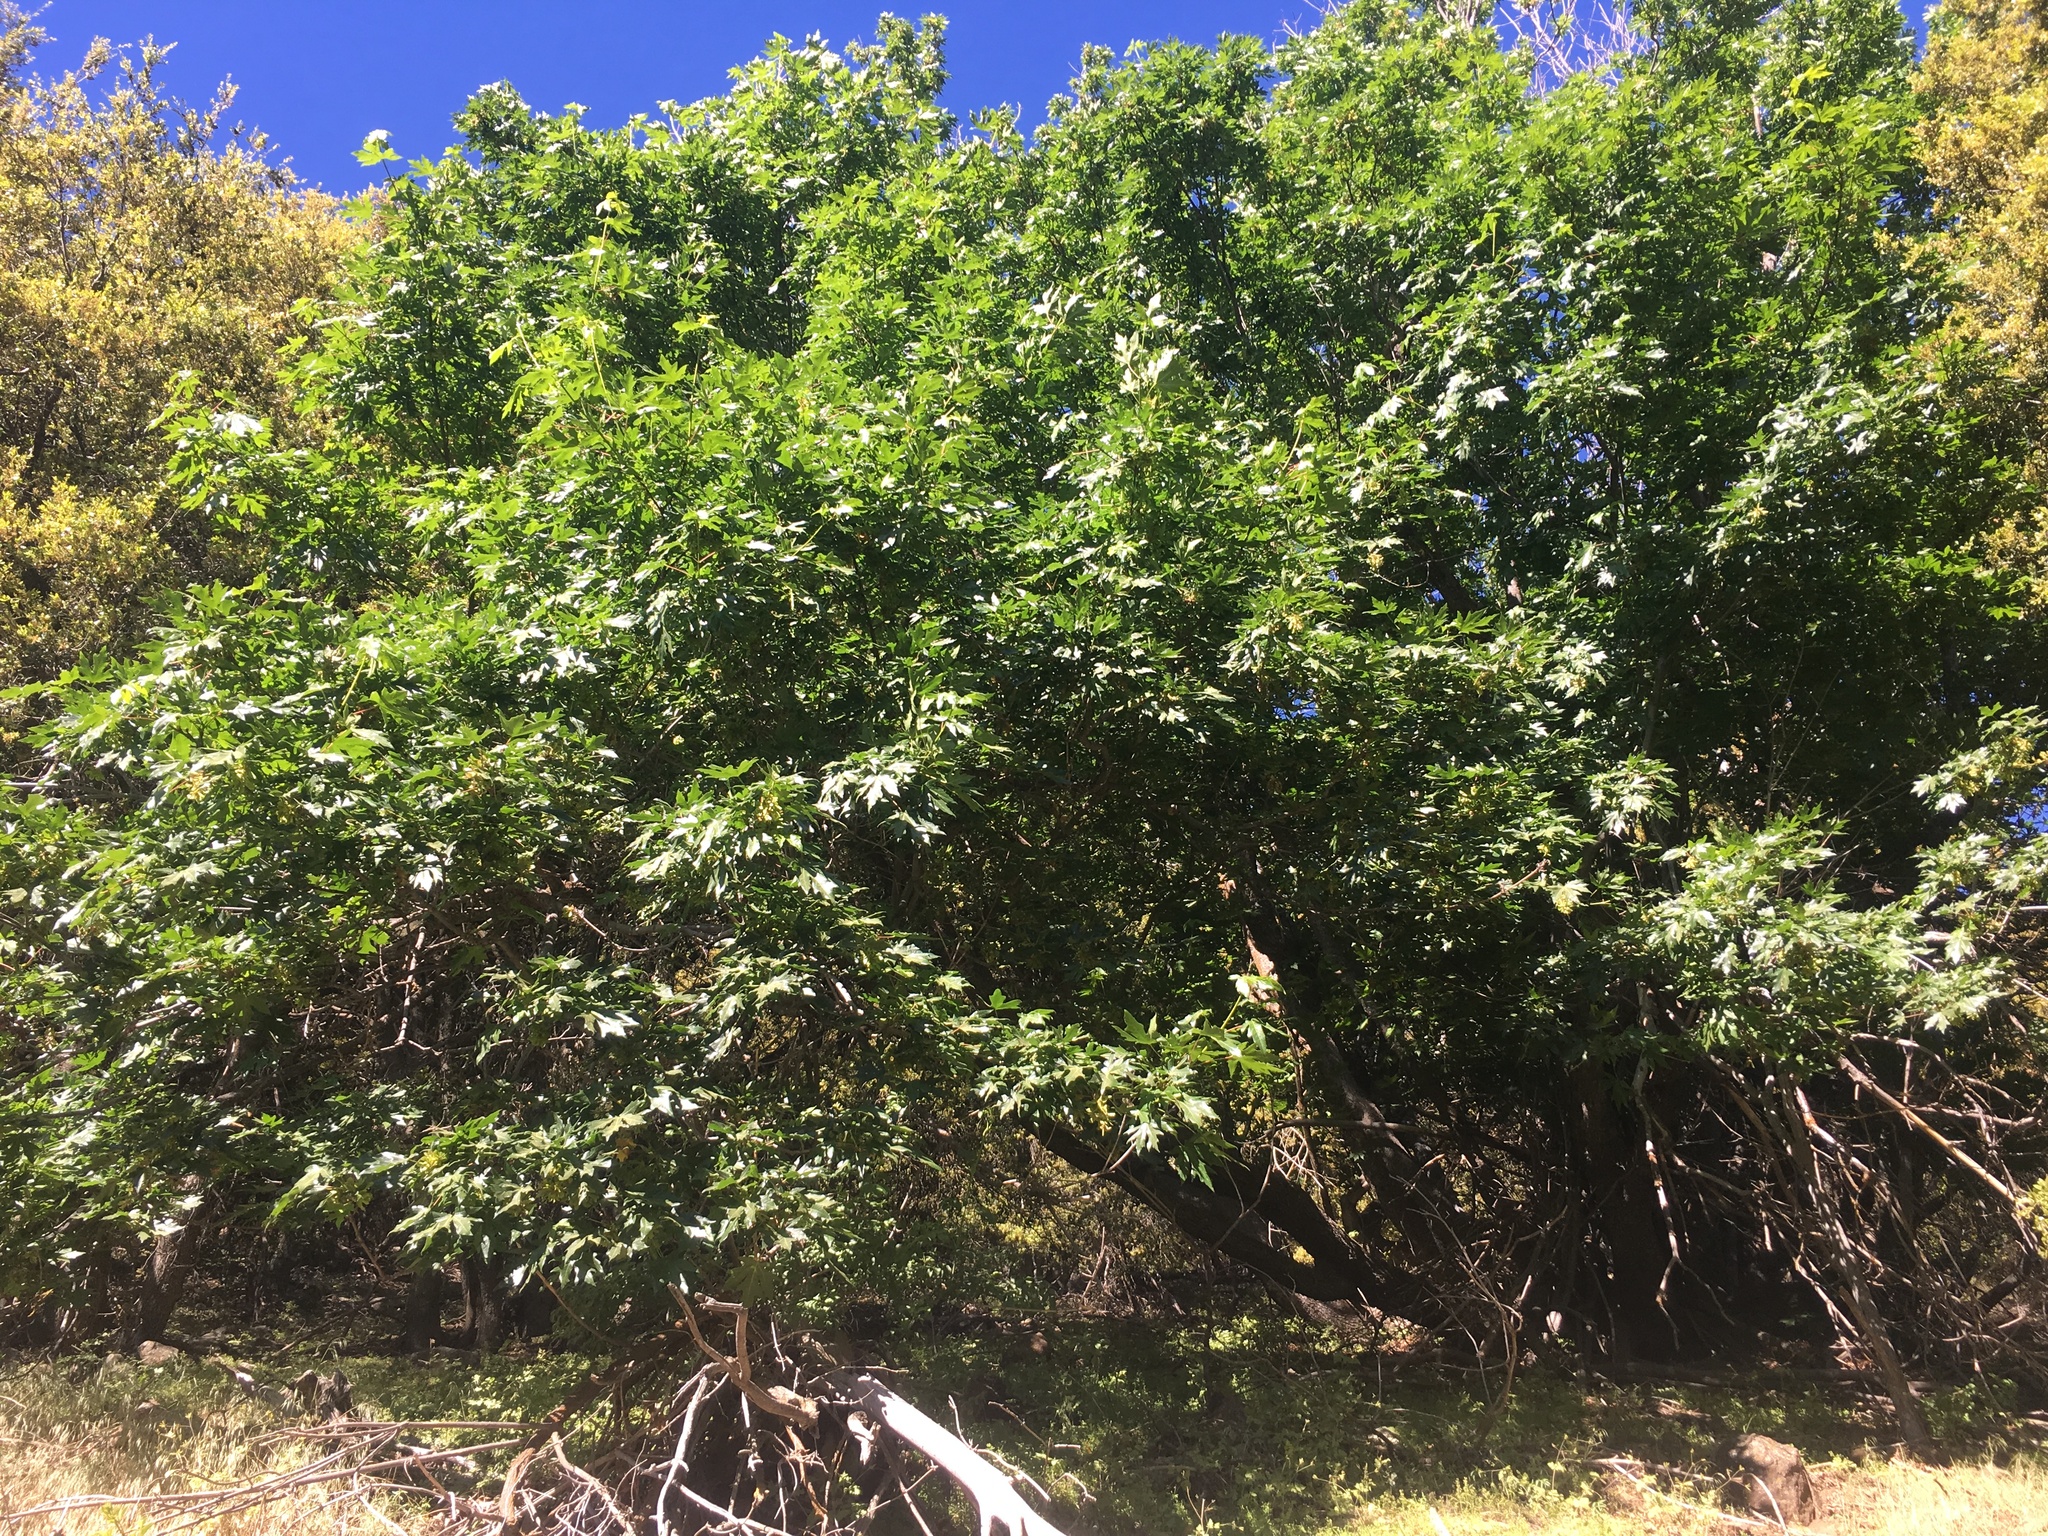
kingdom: Plantae
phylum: Tracheophyta
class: Magnoliopsida
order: Sapindales
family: Sapindaceae
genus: Acer
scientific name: Acer macrophyllum
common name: Oregon maple
